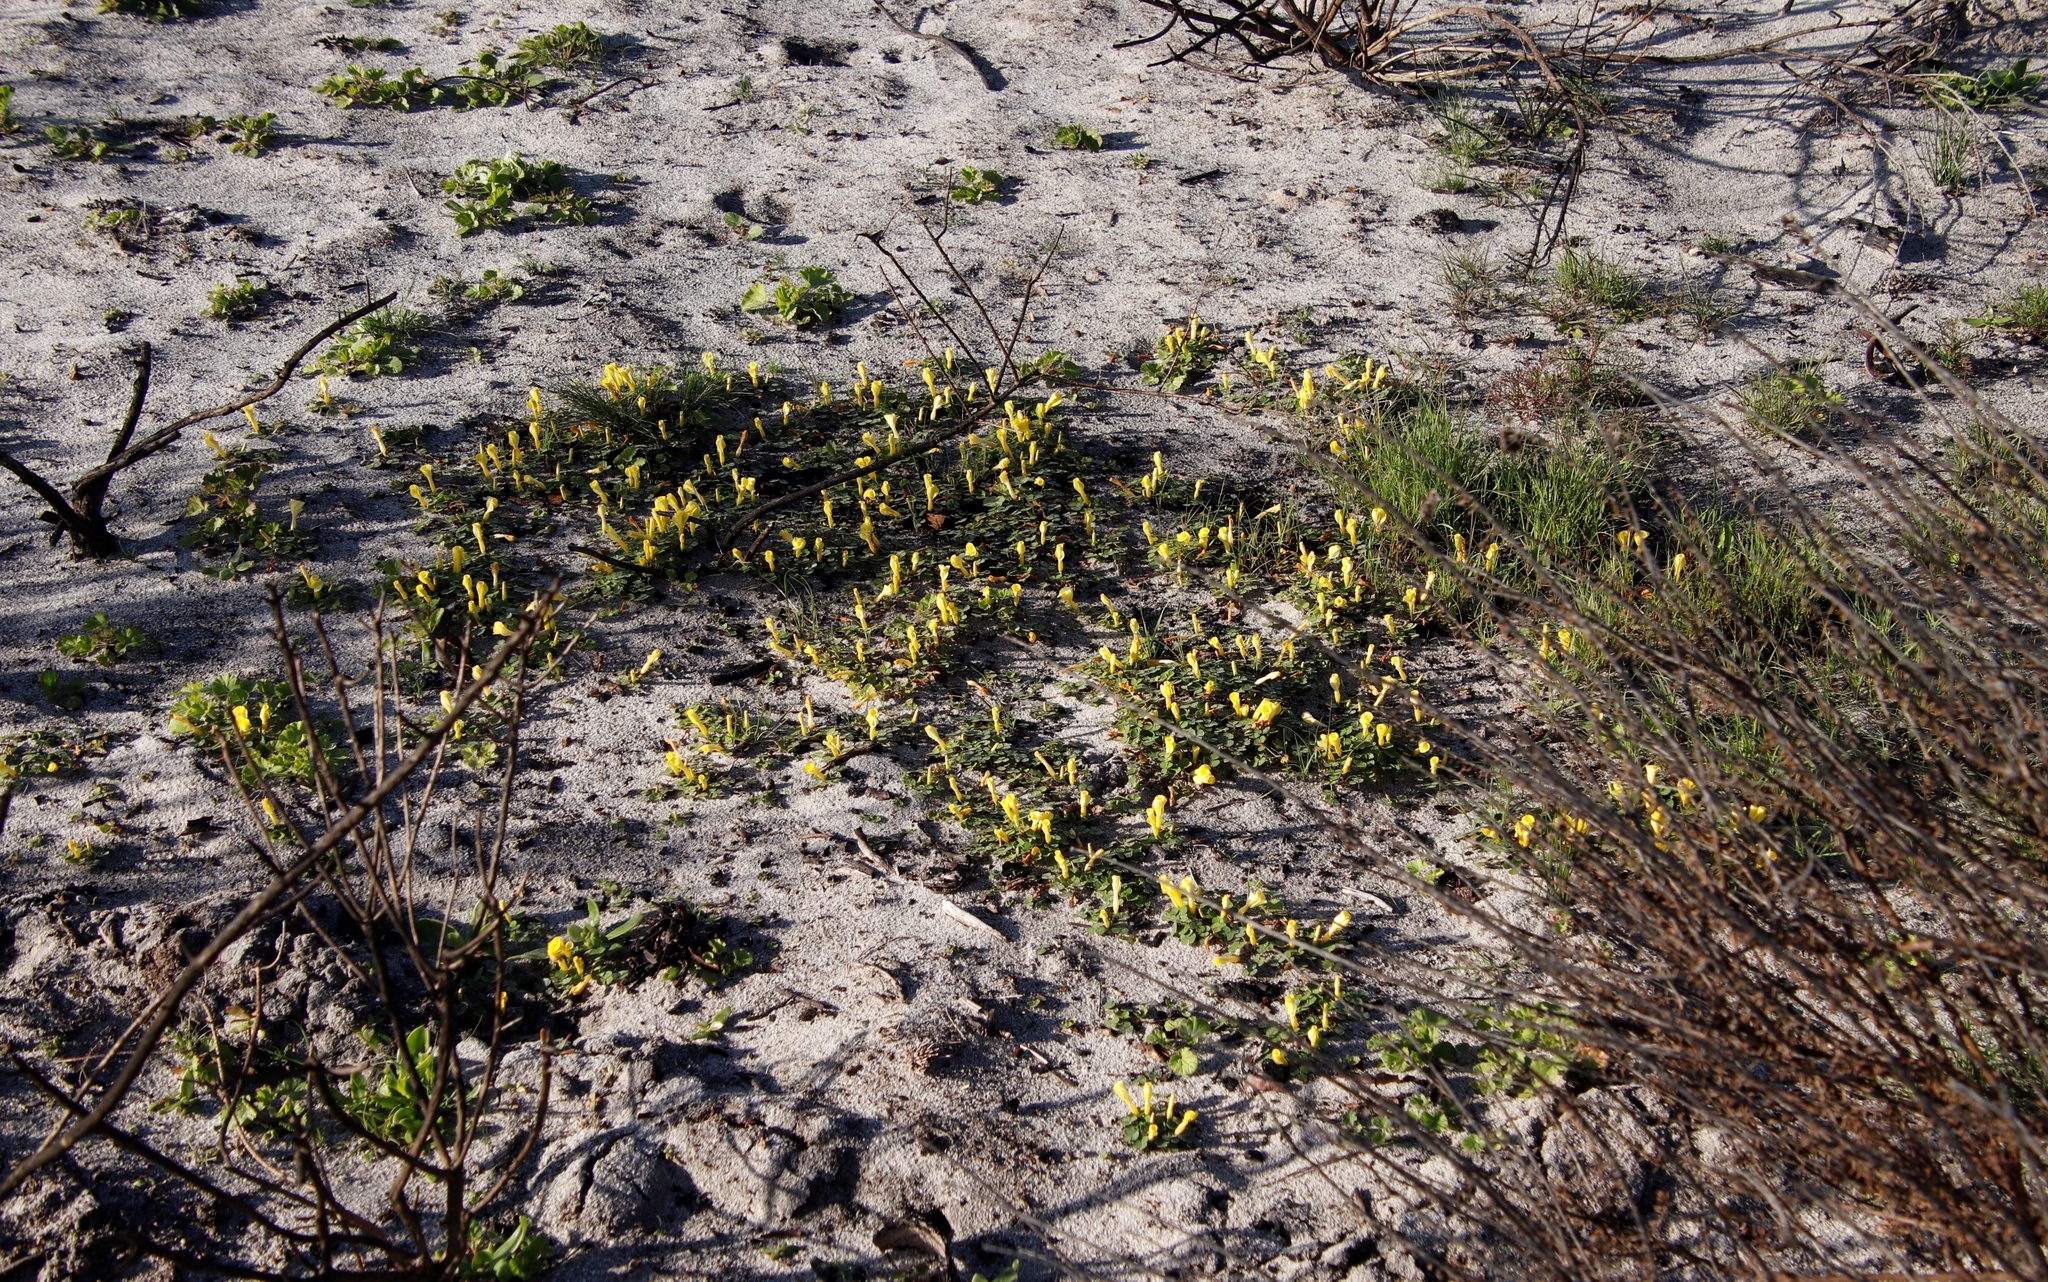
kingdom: Plantae
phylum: Tracheophyta
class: Magnoliopsida
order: Oxalidales
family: Oxalidaceae
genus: Oxalis
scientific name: Oxalis luteola
